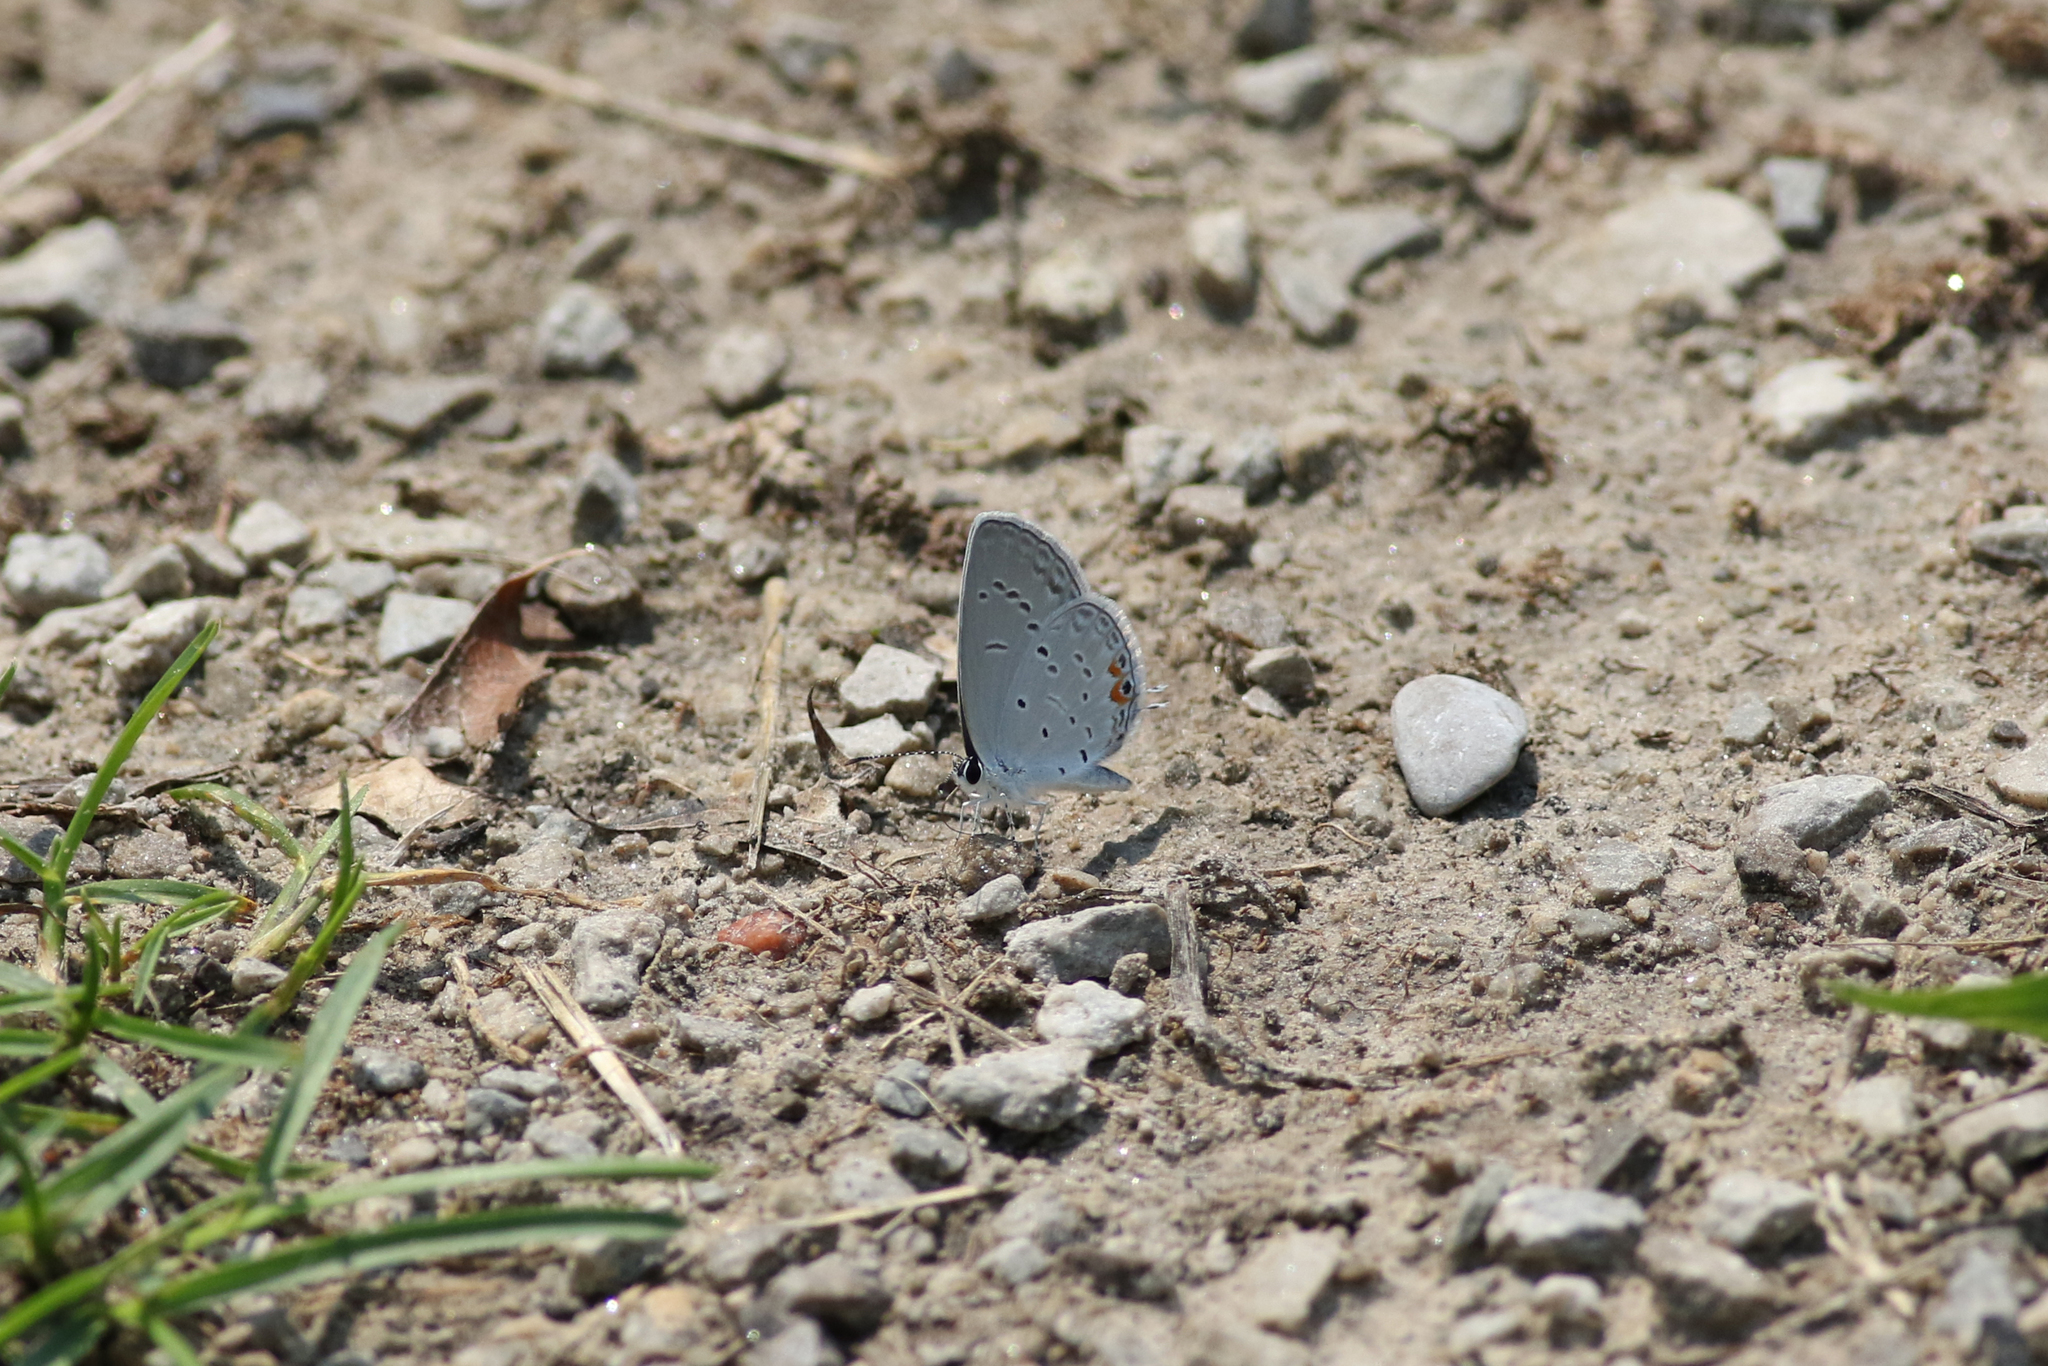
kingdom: Animalia
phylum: Arthropoda
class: Insecta
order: Lepidoptera
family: Lycaenidae
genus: Elkalyce
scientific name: Elkalyce comyntas
